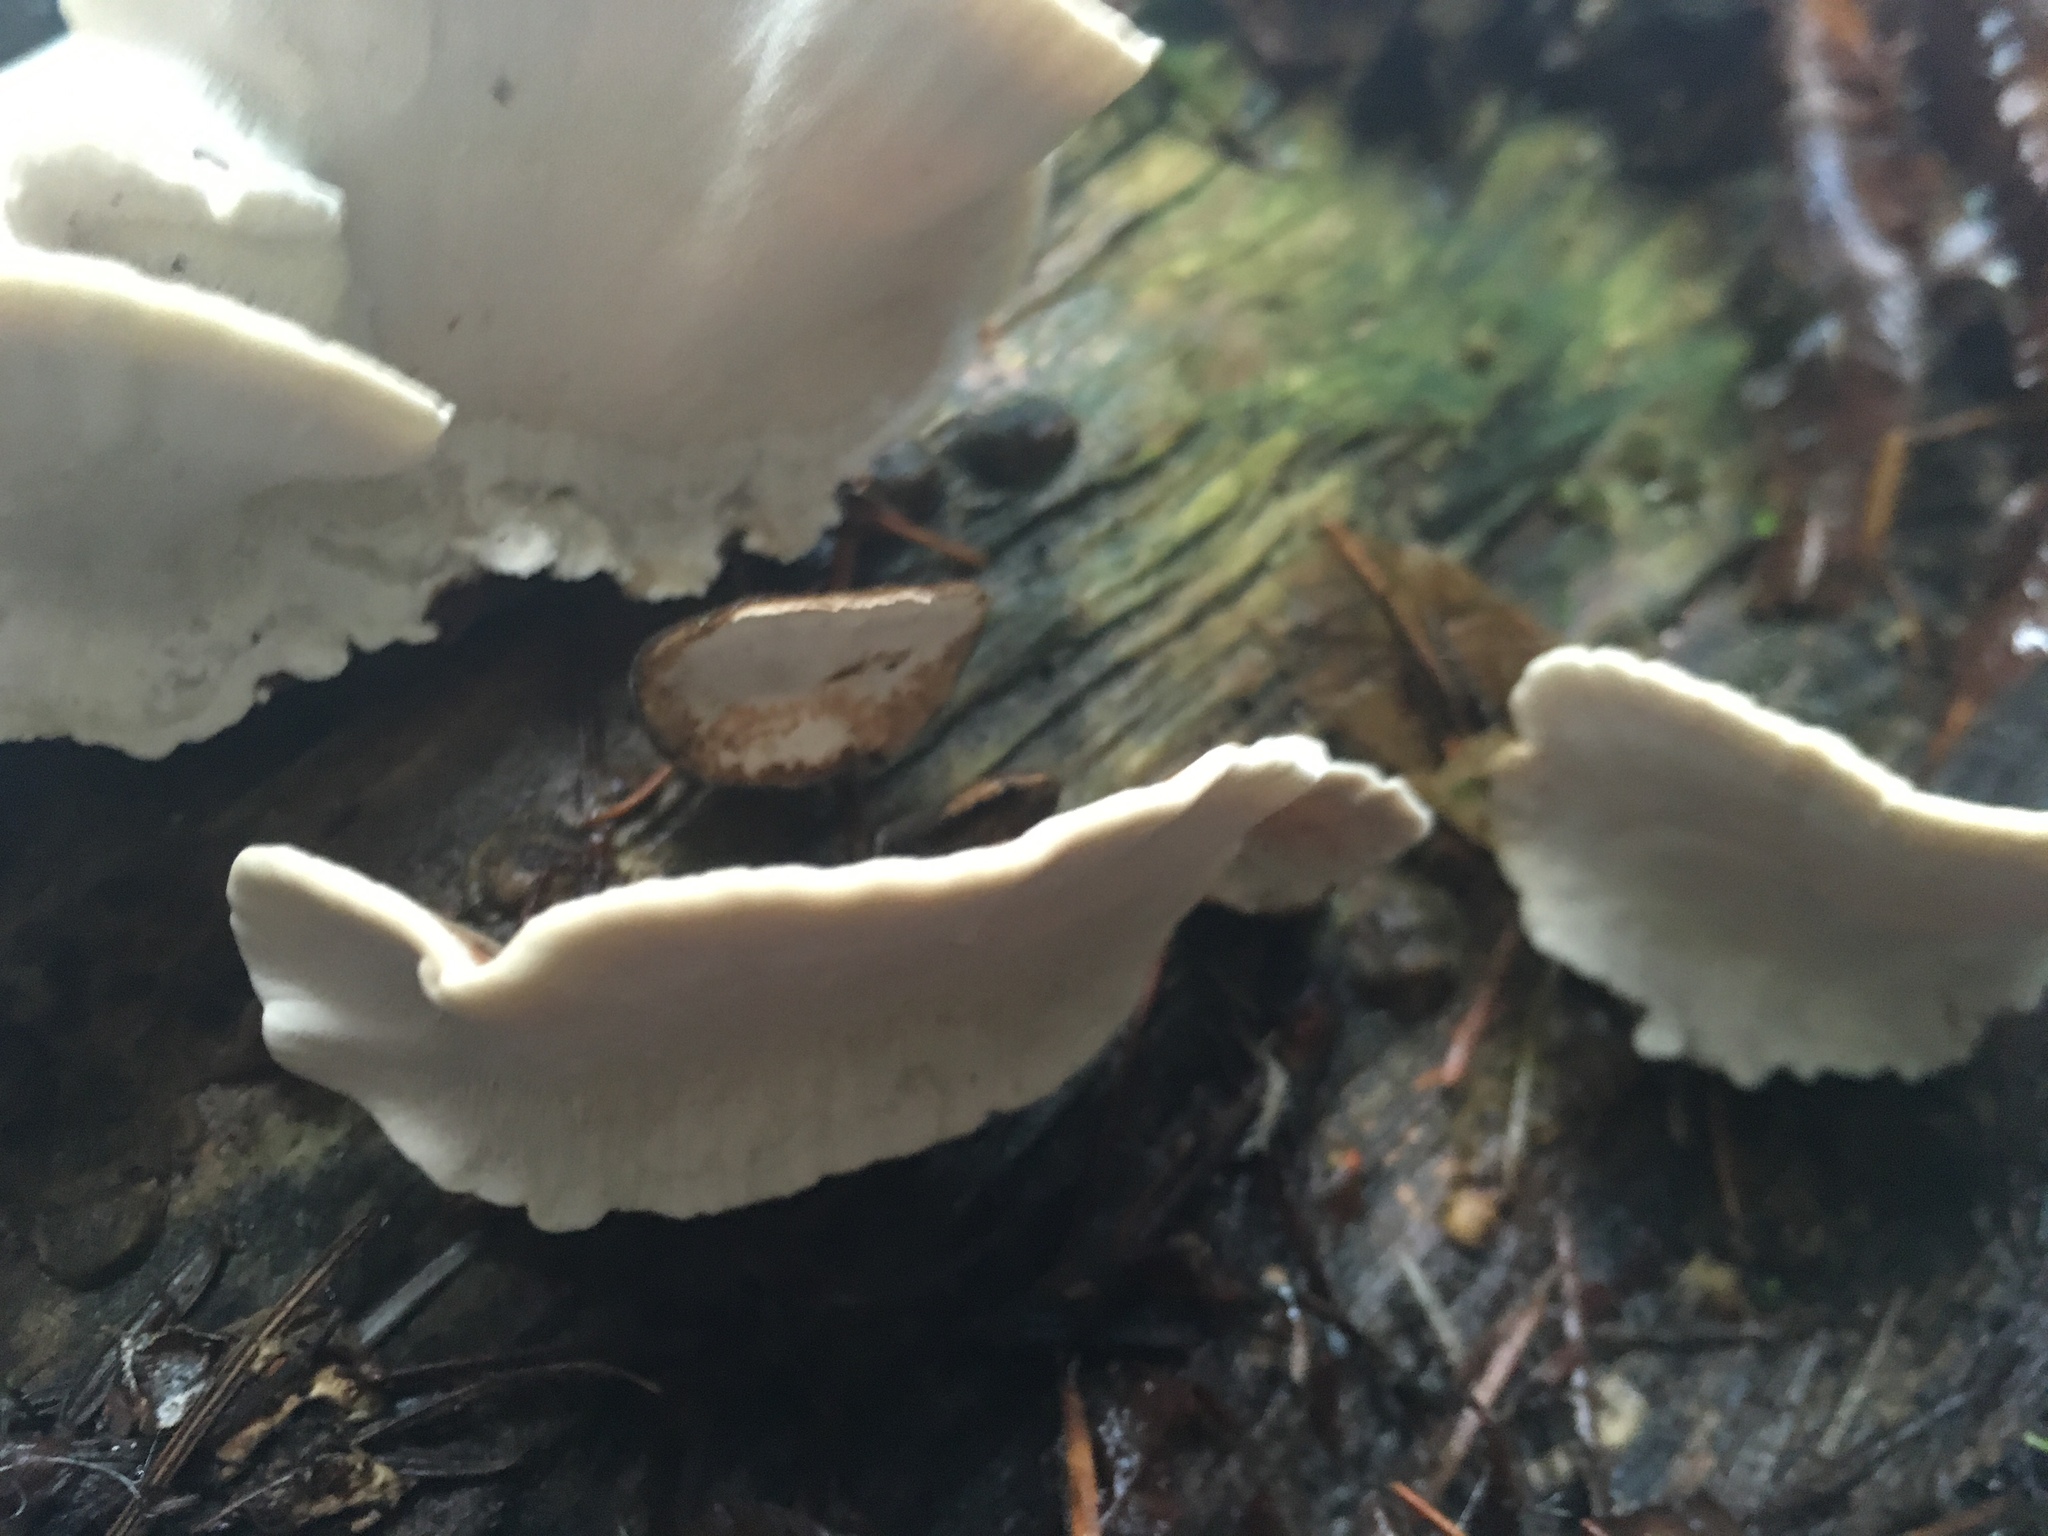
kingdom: Fungi
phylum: Basidiomycota
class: Agaricomycetes
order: Polyporales
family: Polyporaceae
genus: Trametes
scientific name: Trametes versicolor
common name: Turkeytail
